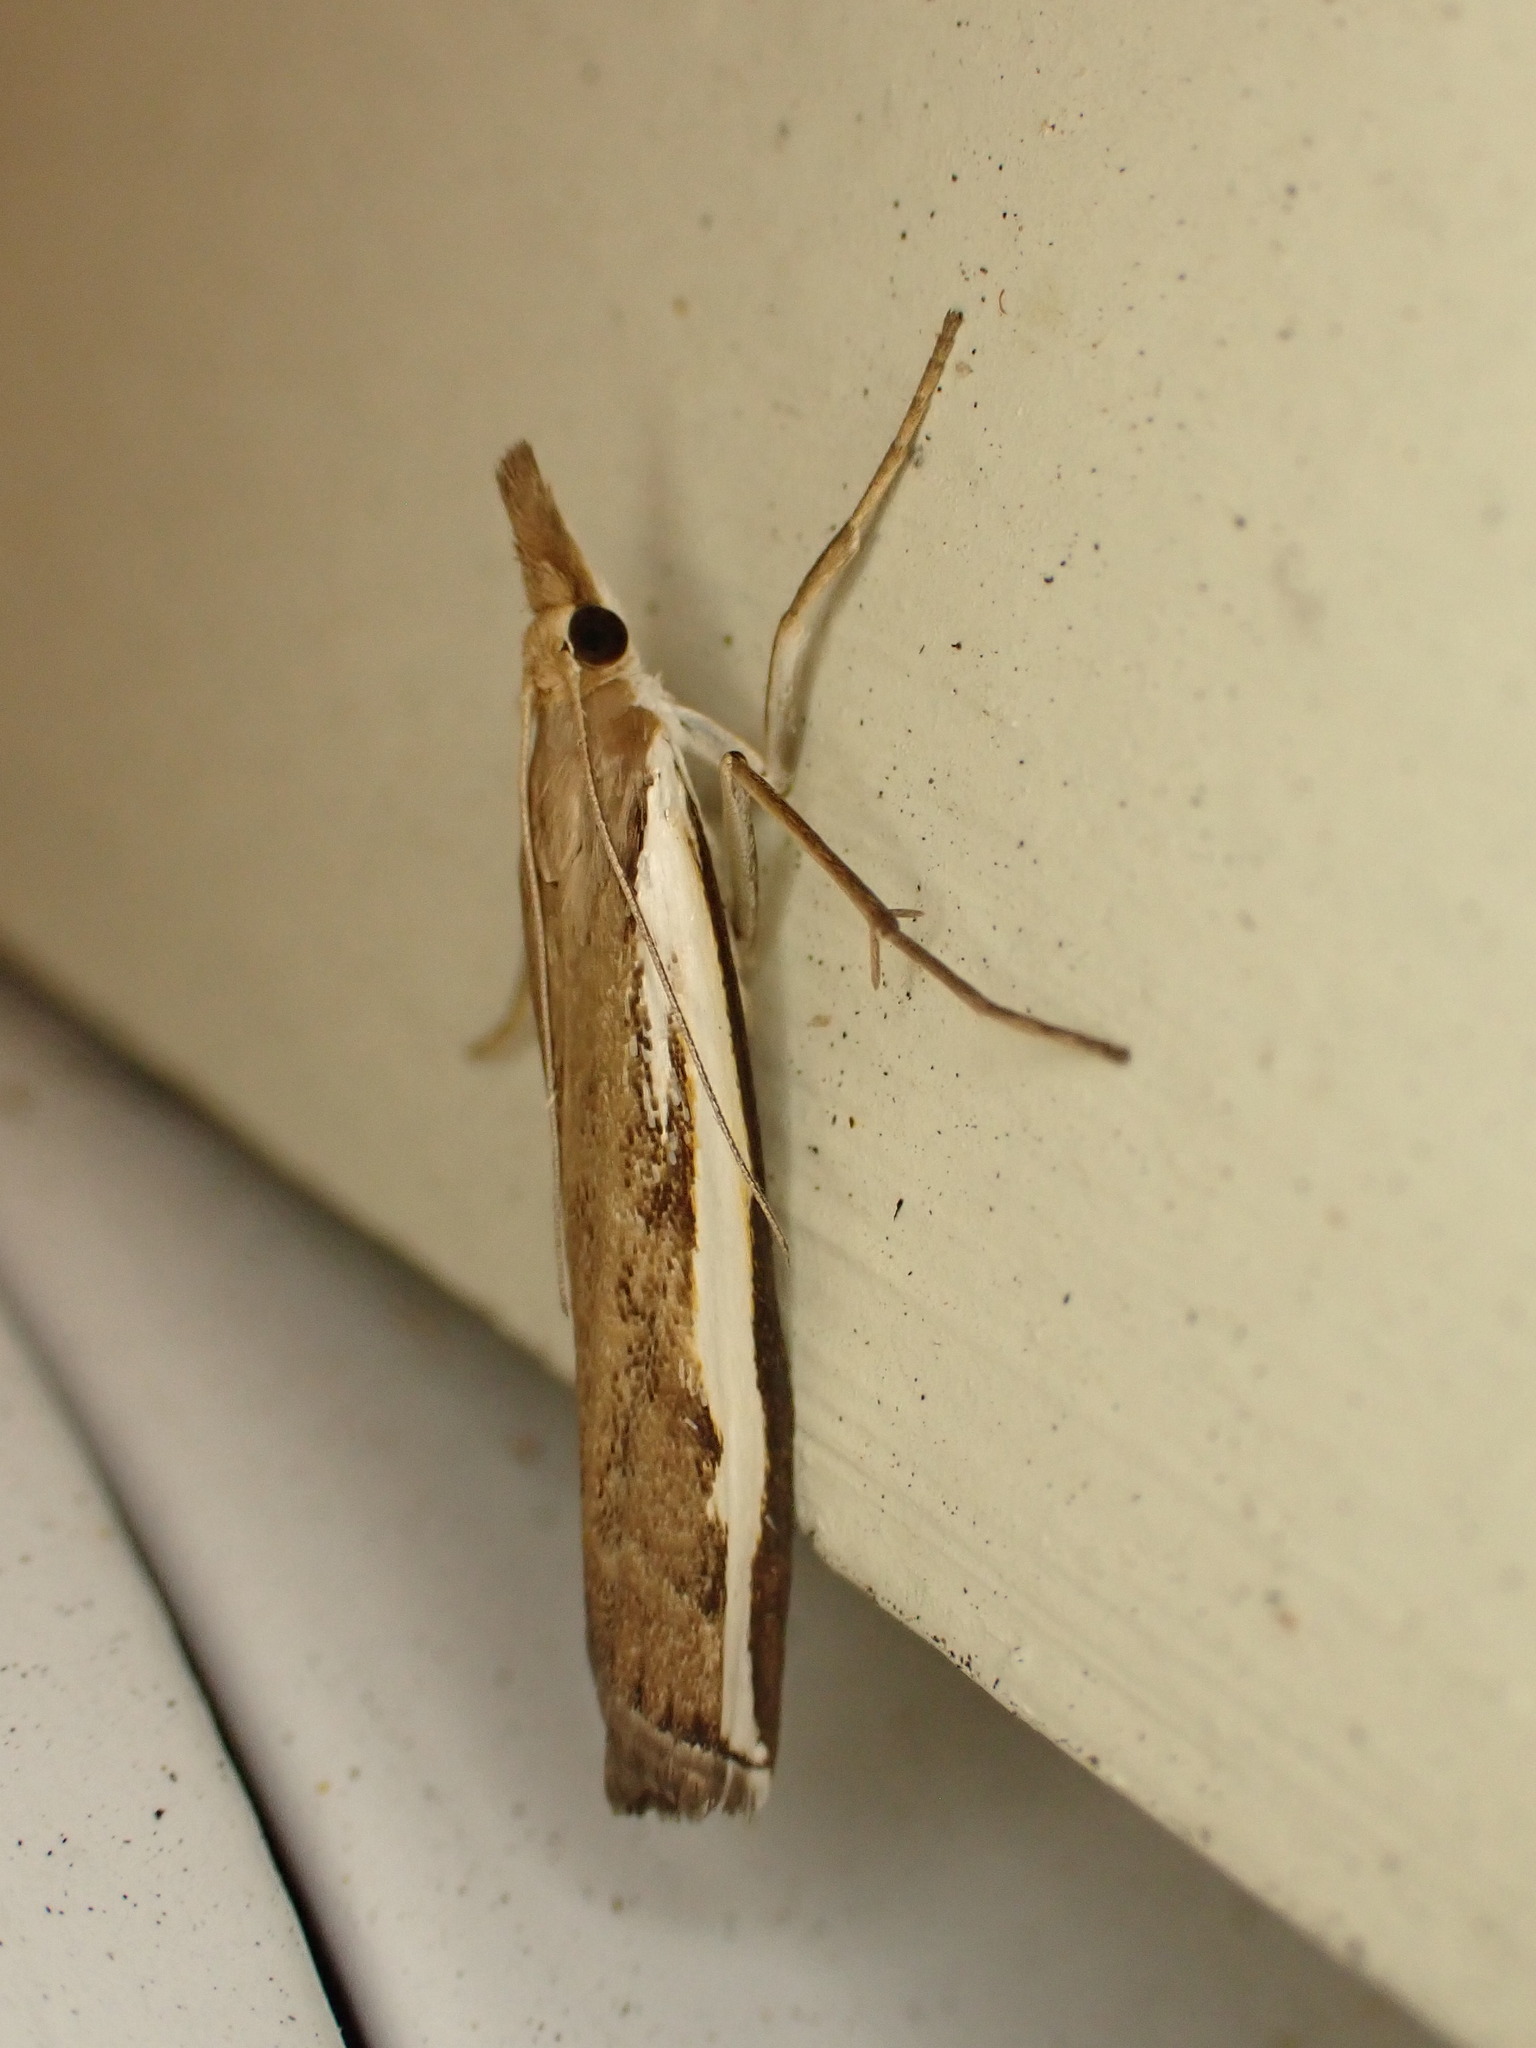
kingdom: Animalia
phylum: Arthropoda
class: Insecta
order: Lepidoptera
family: Crambidae
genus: Orocrambus
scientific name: Orocrambus flexuosellus
